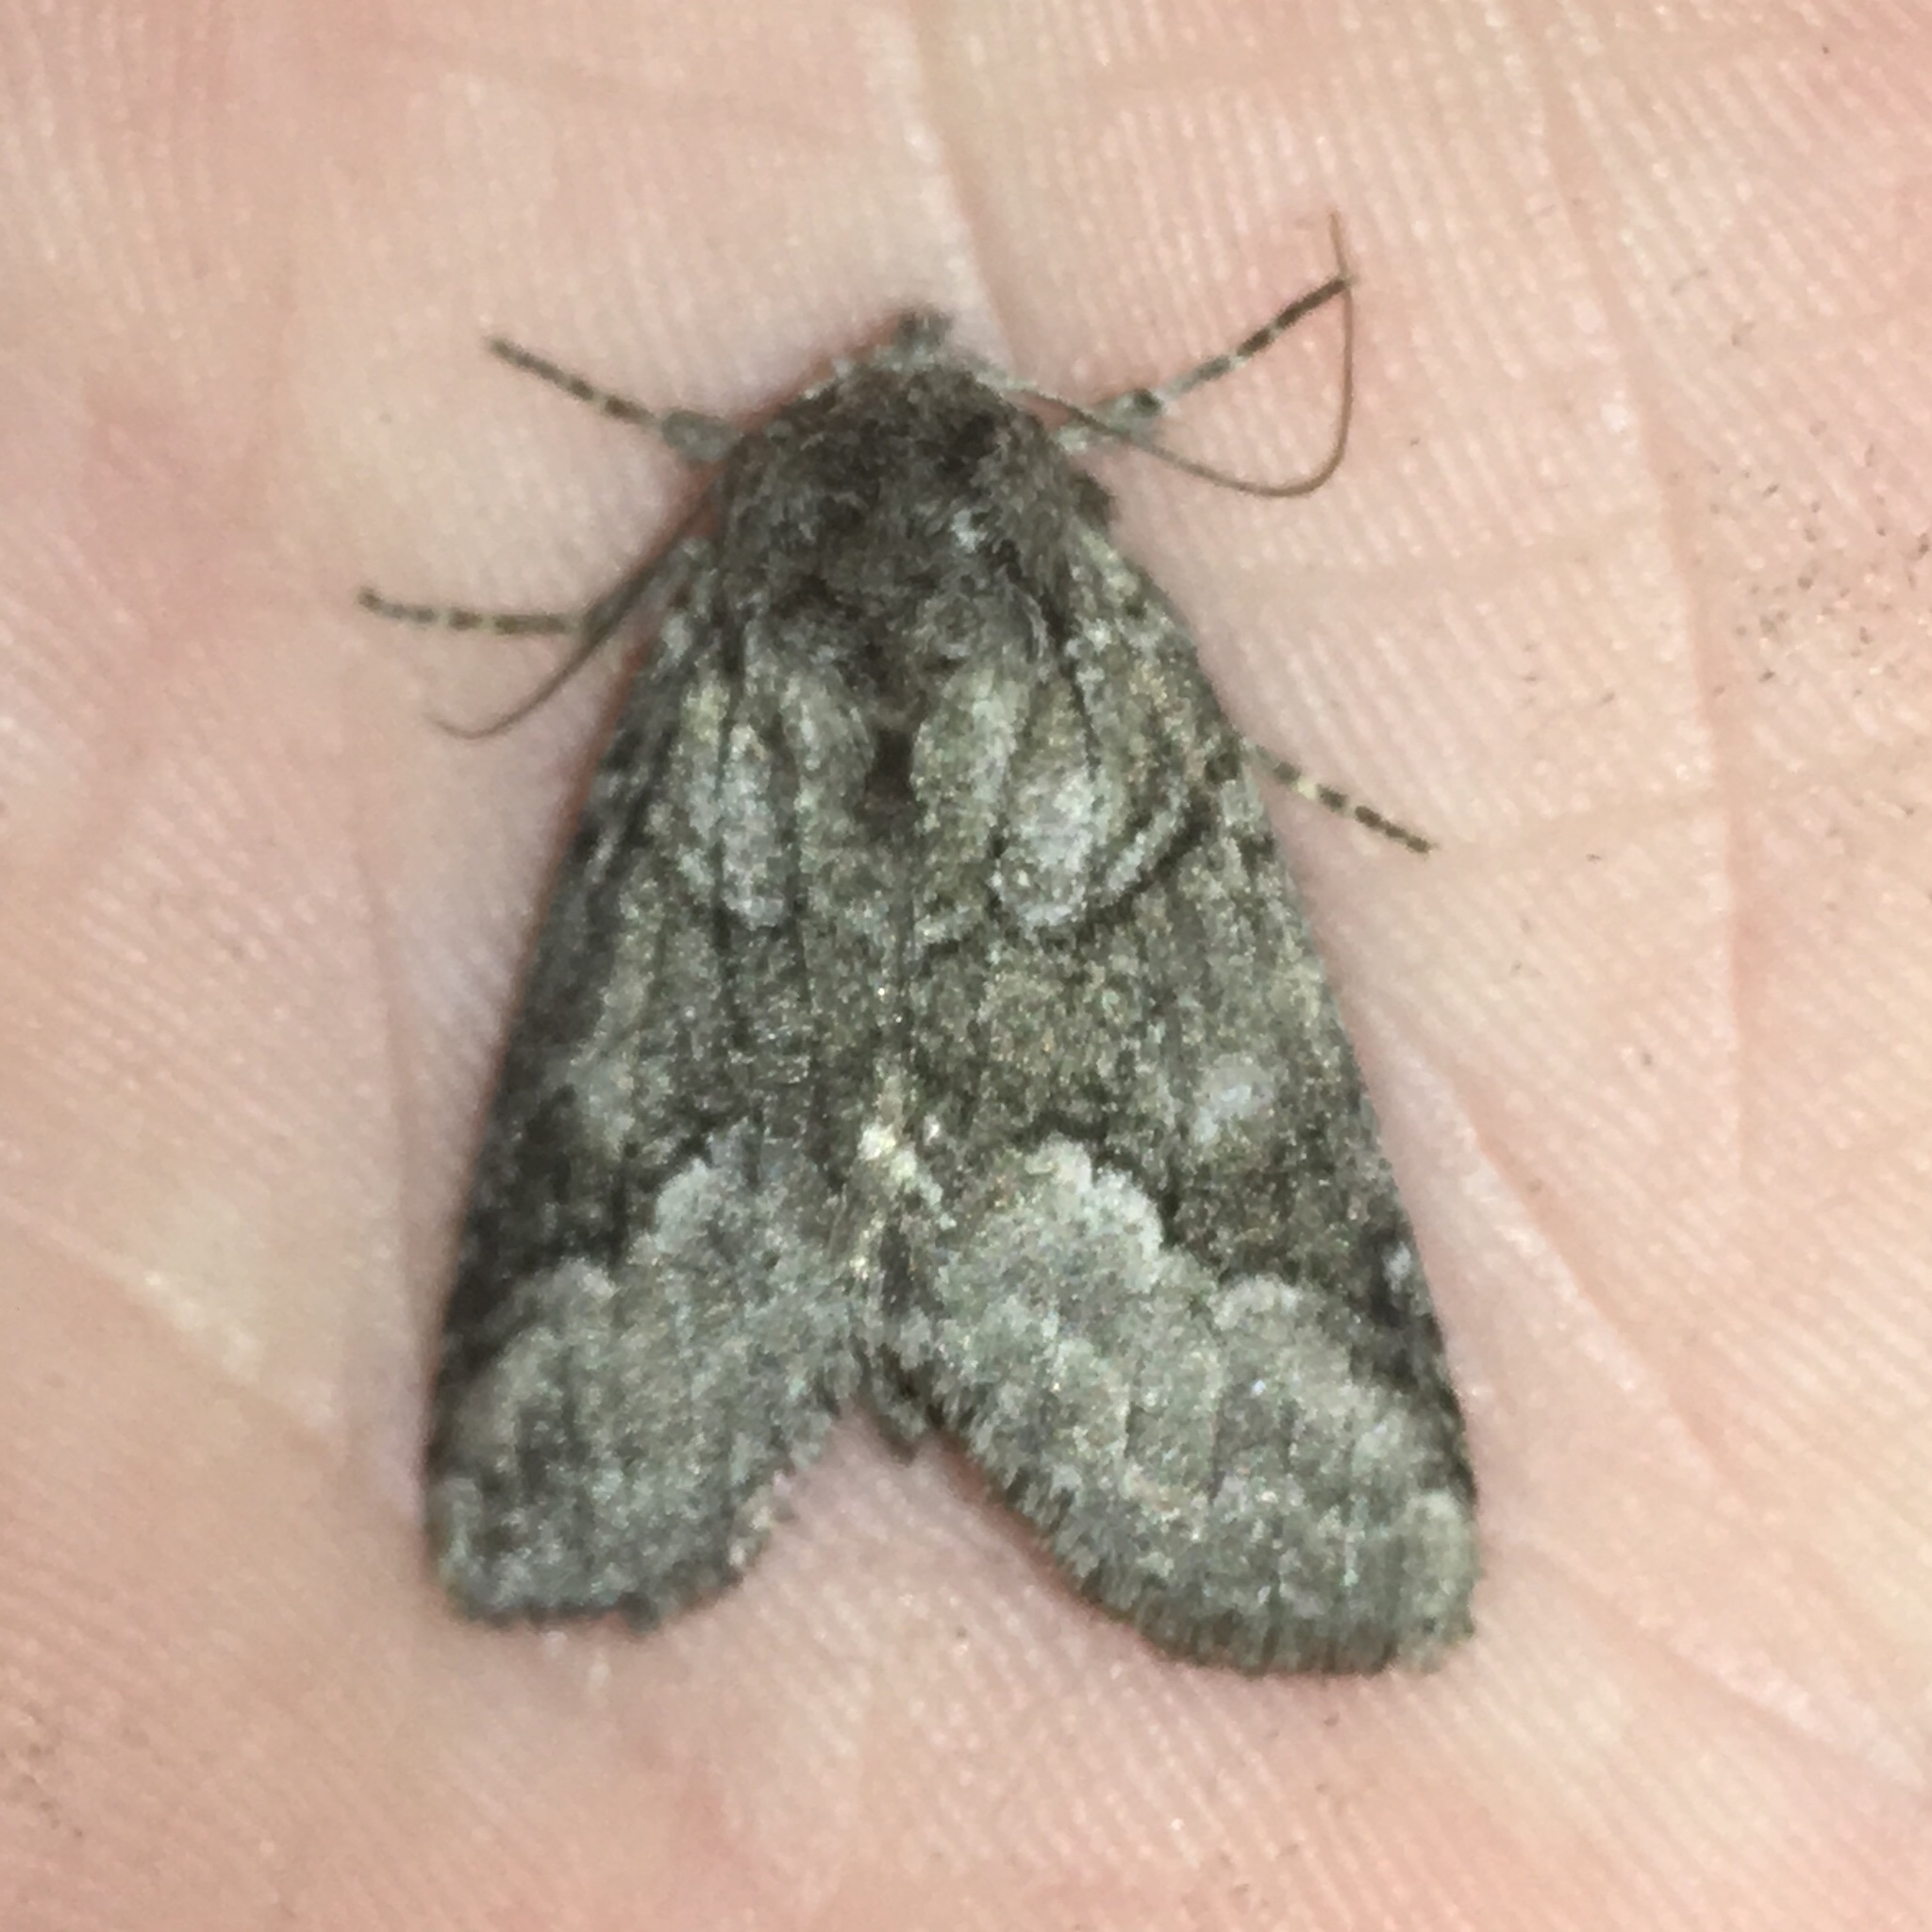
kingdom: Animalia
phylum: Arthropoda
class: Insecta
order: Lepidoptera
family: Notodontidae
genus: Lochmaeus
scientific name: Lochmaeus bilineata
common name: Double-lined prominent
